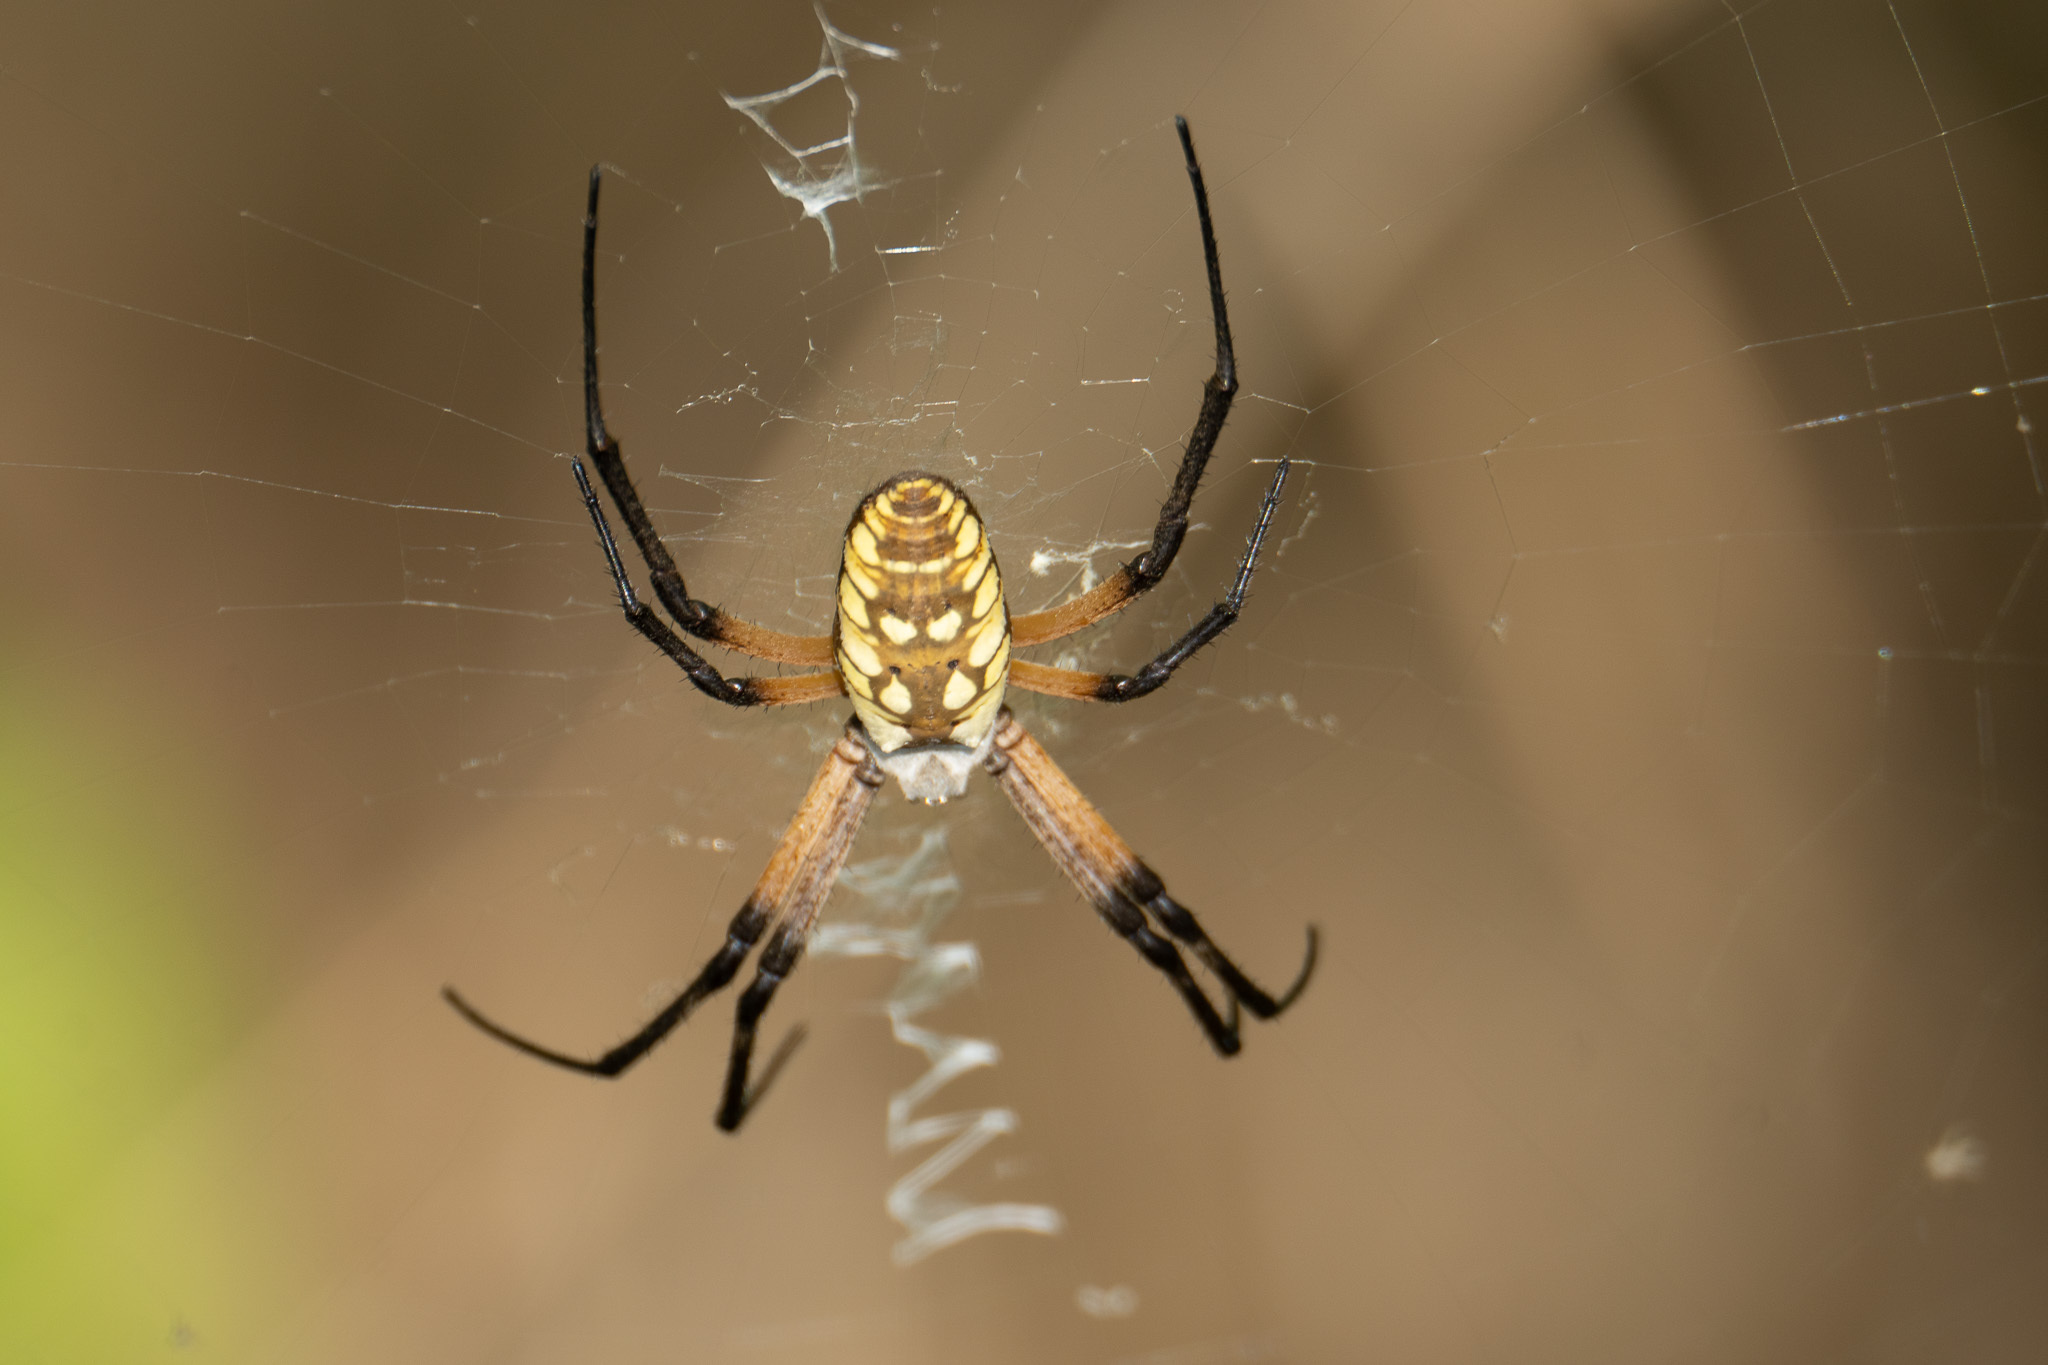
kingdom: Animalia
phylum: Arthropoda
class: Arachnida
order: Araneae
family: Araneidae
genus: Argiope
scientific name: Argiope aurantia
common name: Orb weavers
